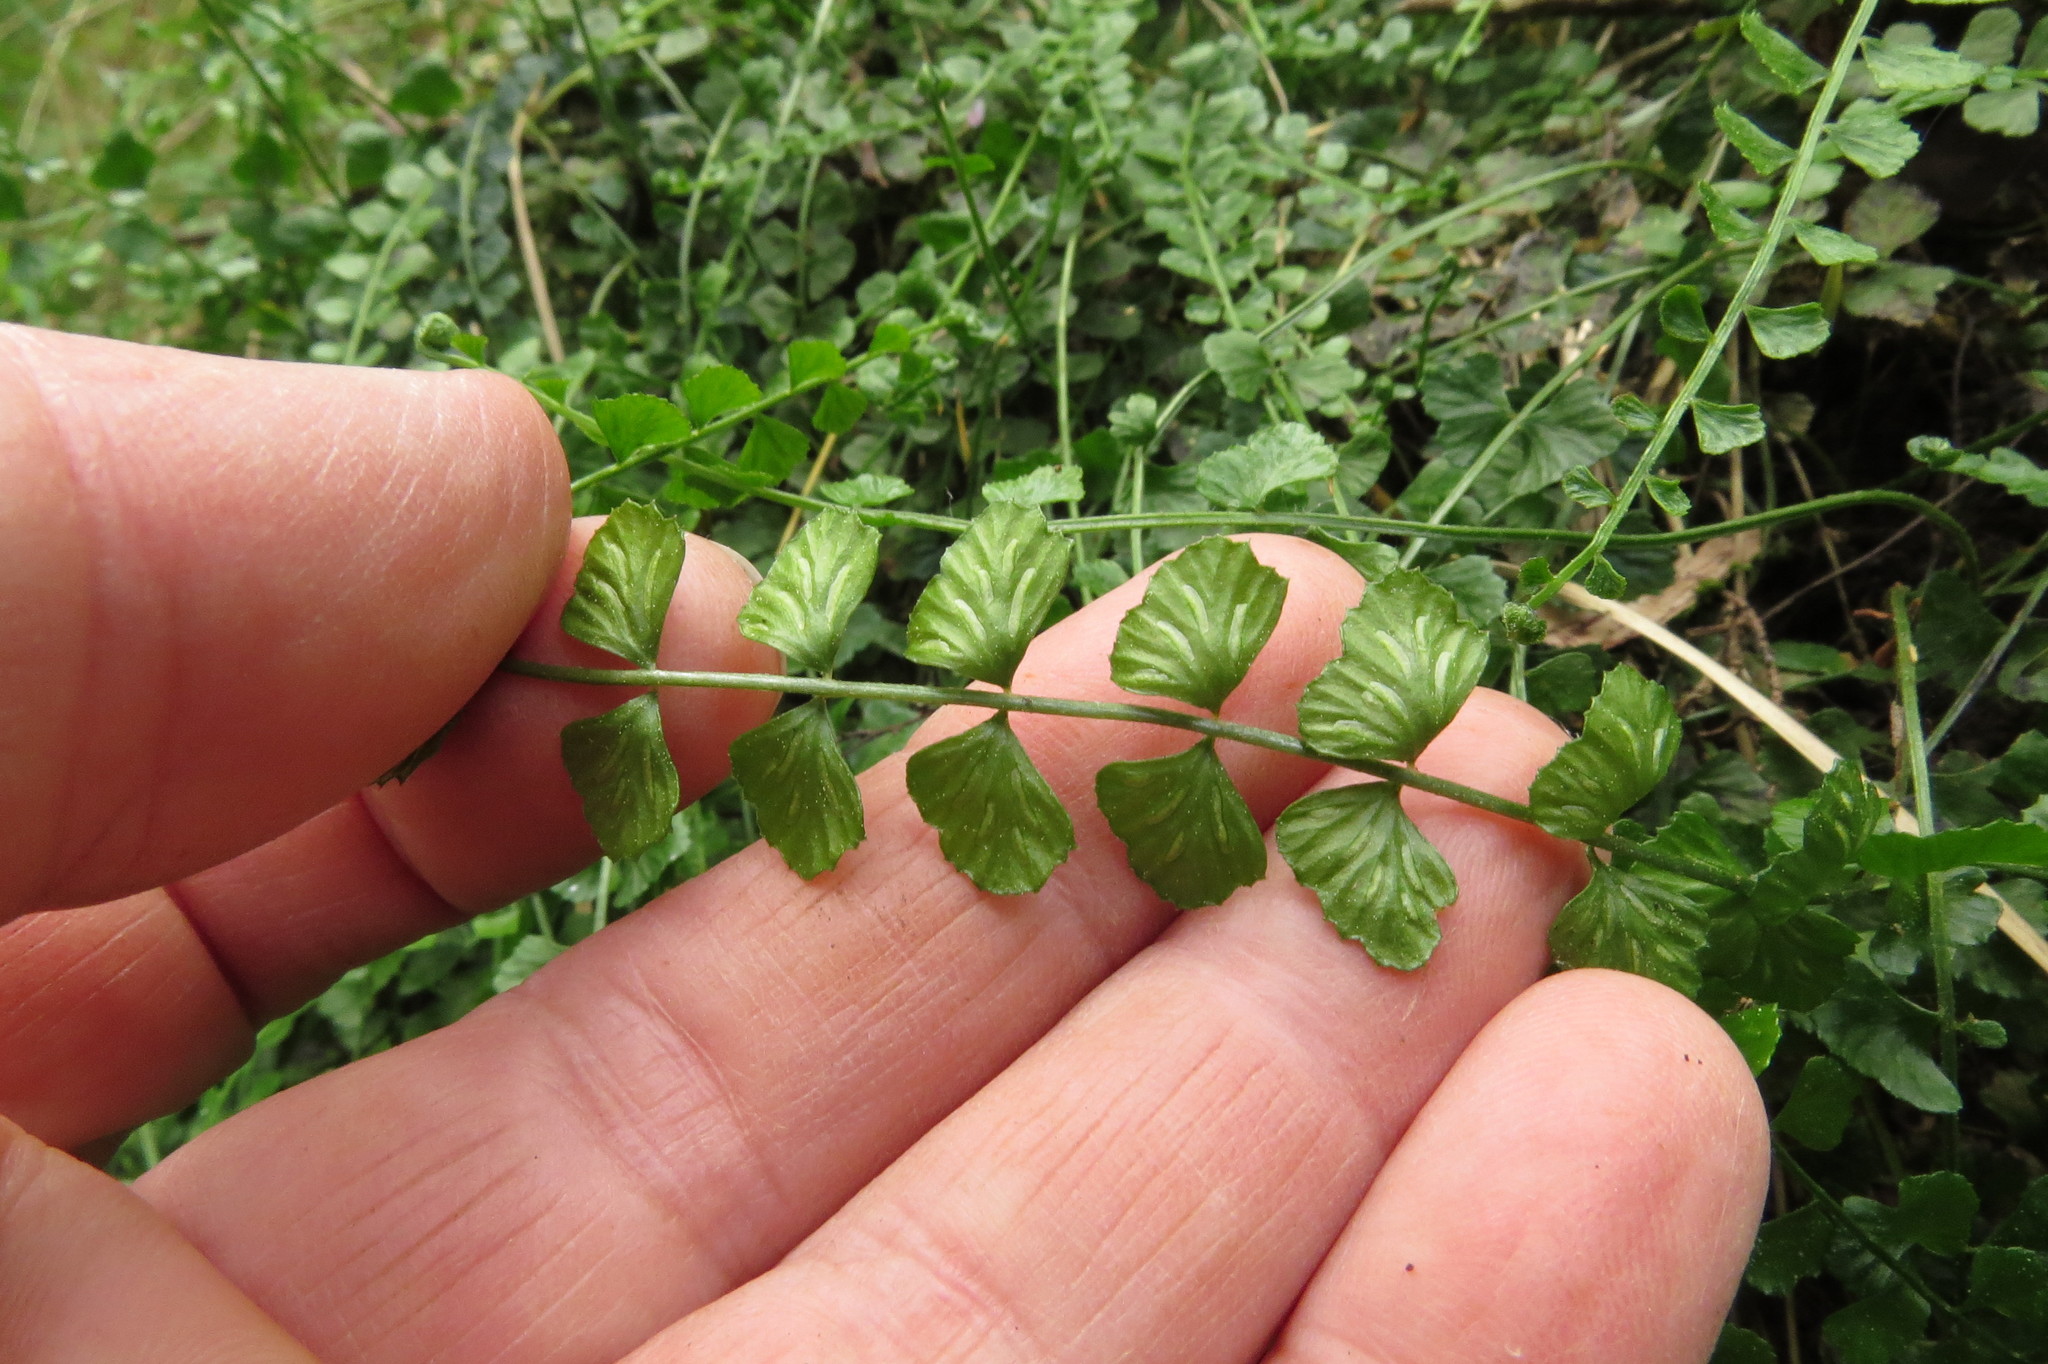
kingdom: Plantae
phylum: Tracheophyta
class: Polypodiopsida
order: Polypodiales
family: Aspleniaceae
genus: Asplenium
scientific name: Asplenium flabellifolium
